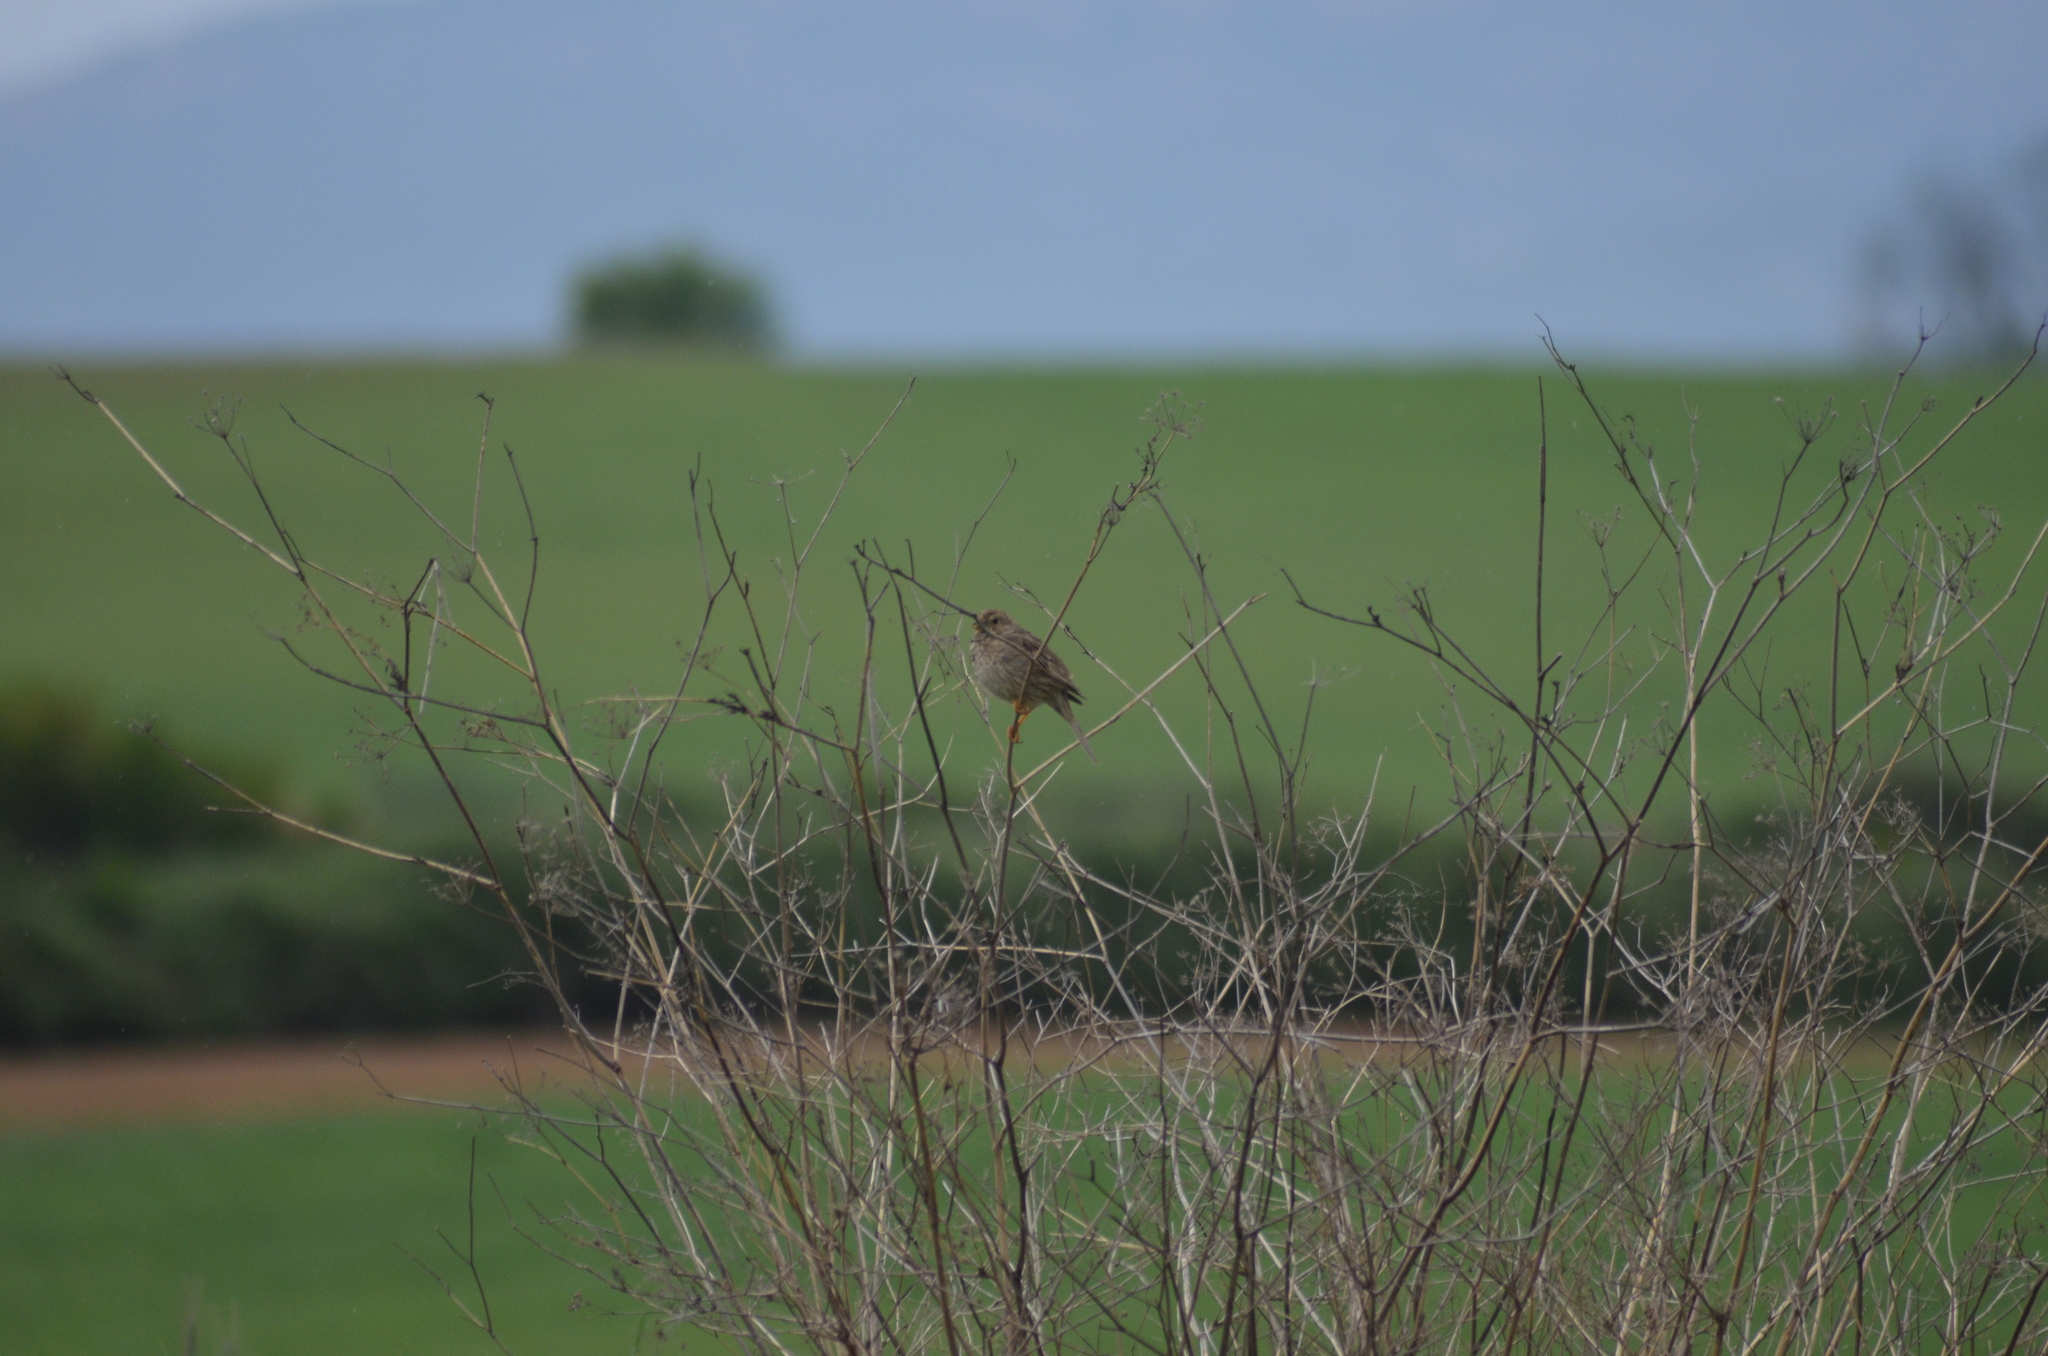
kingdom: Animalia
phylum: Chordata
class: Aves
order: Passeriformes
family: Emberizidae
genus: Emberiza
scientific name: Emberiza calandra
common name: Corn bunting
